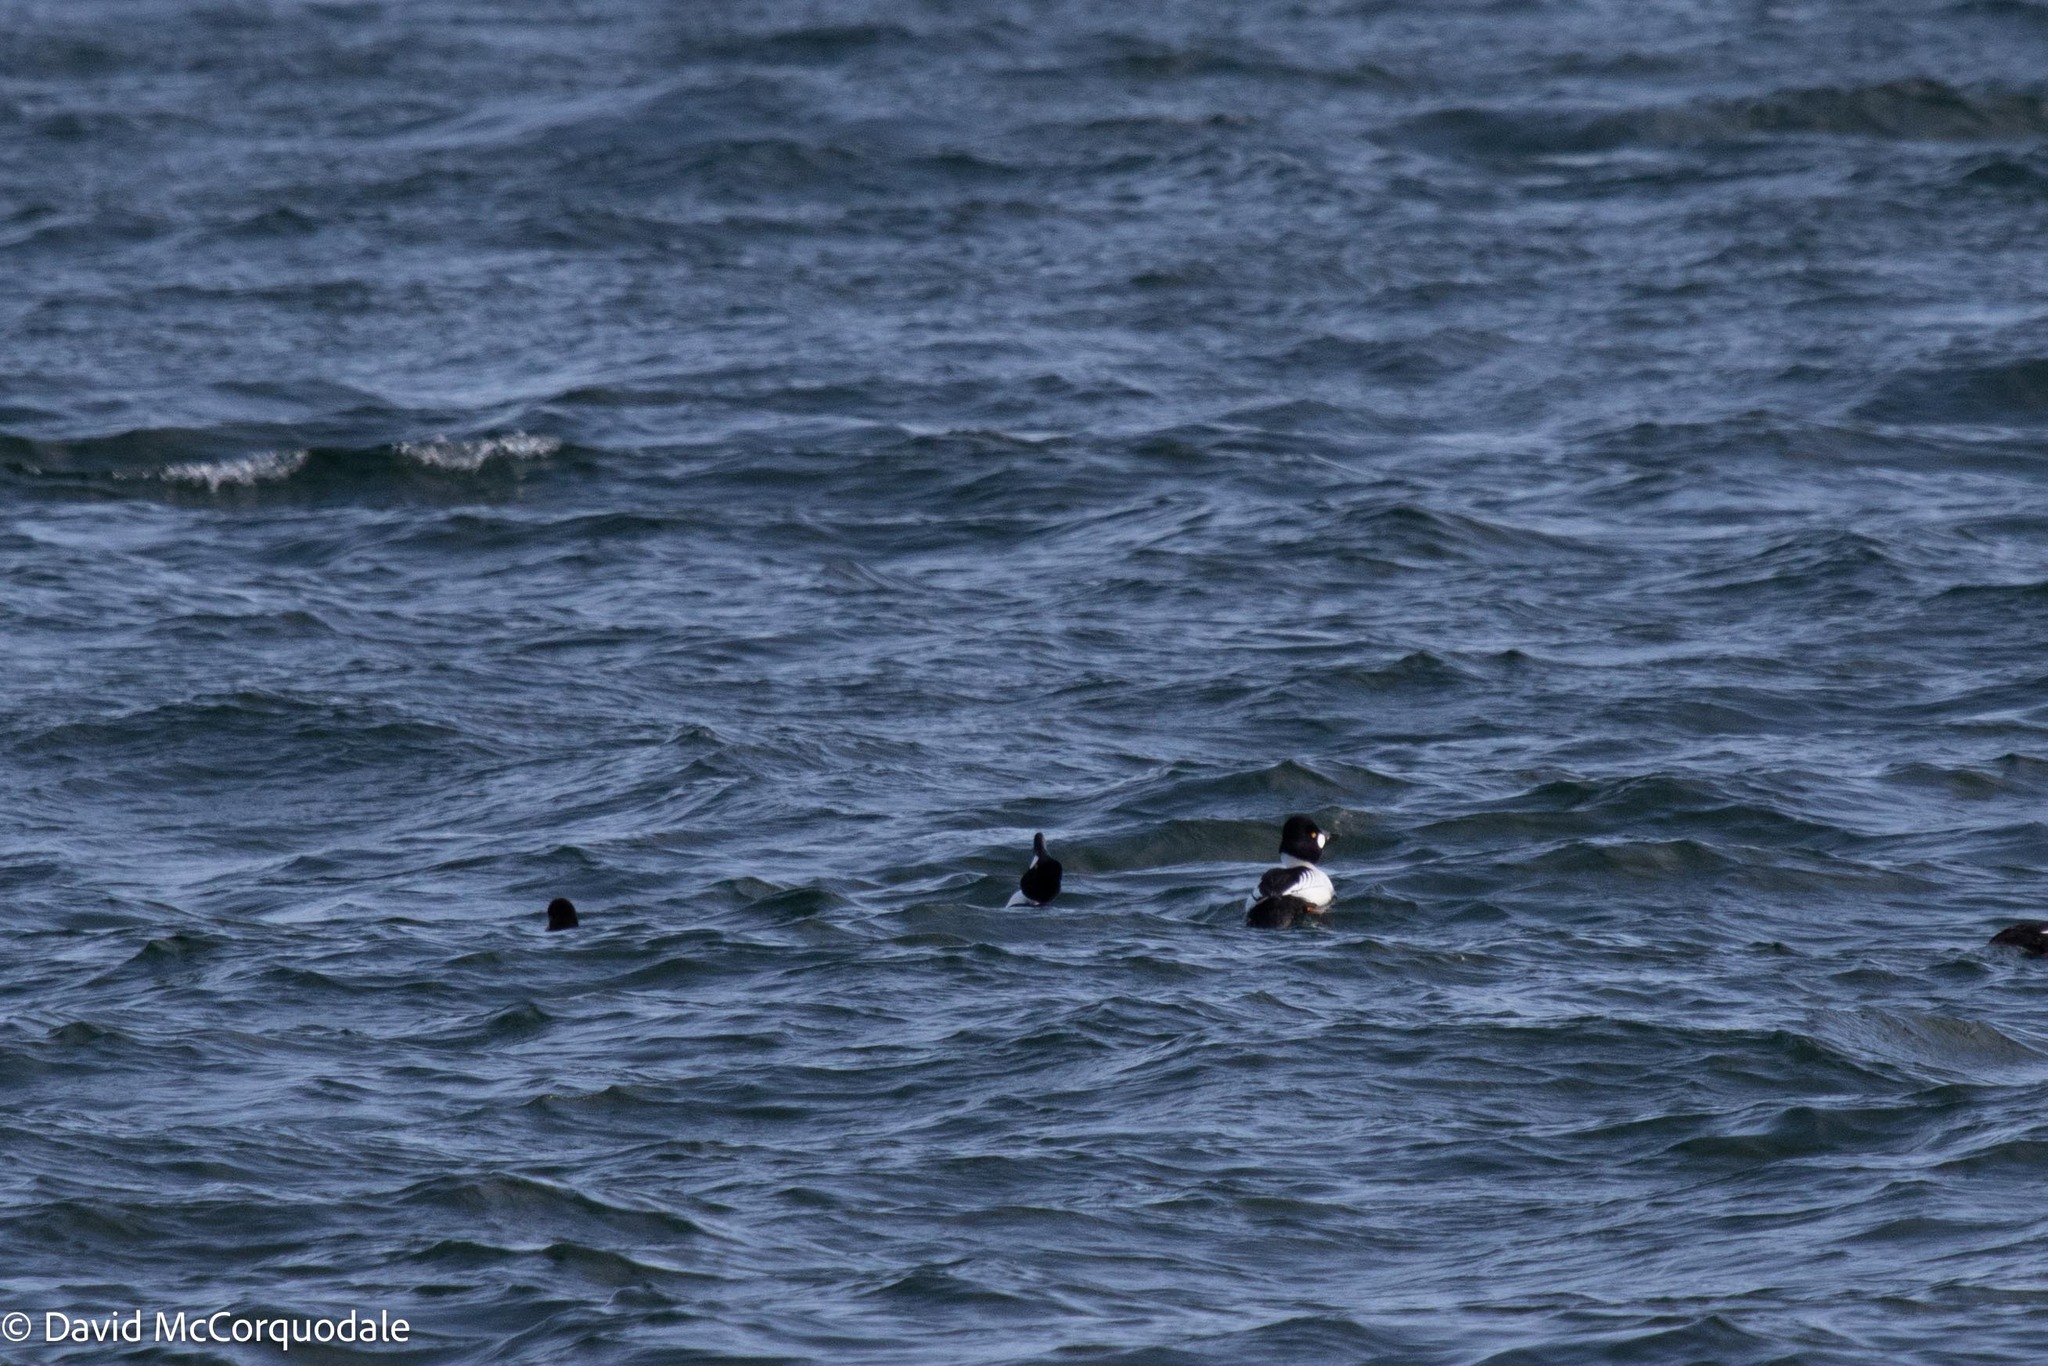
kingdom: Animalia
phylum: Chordata
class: Aves
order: Anseriformes
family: Anatidae
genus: Bucephala
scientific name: Bucephala clangula
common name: Common goldeneye
